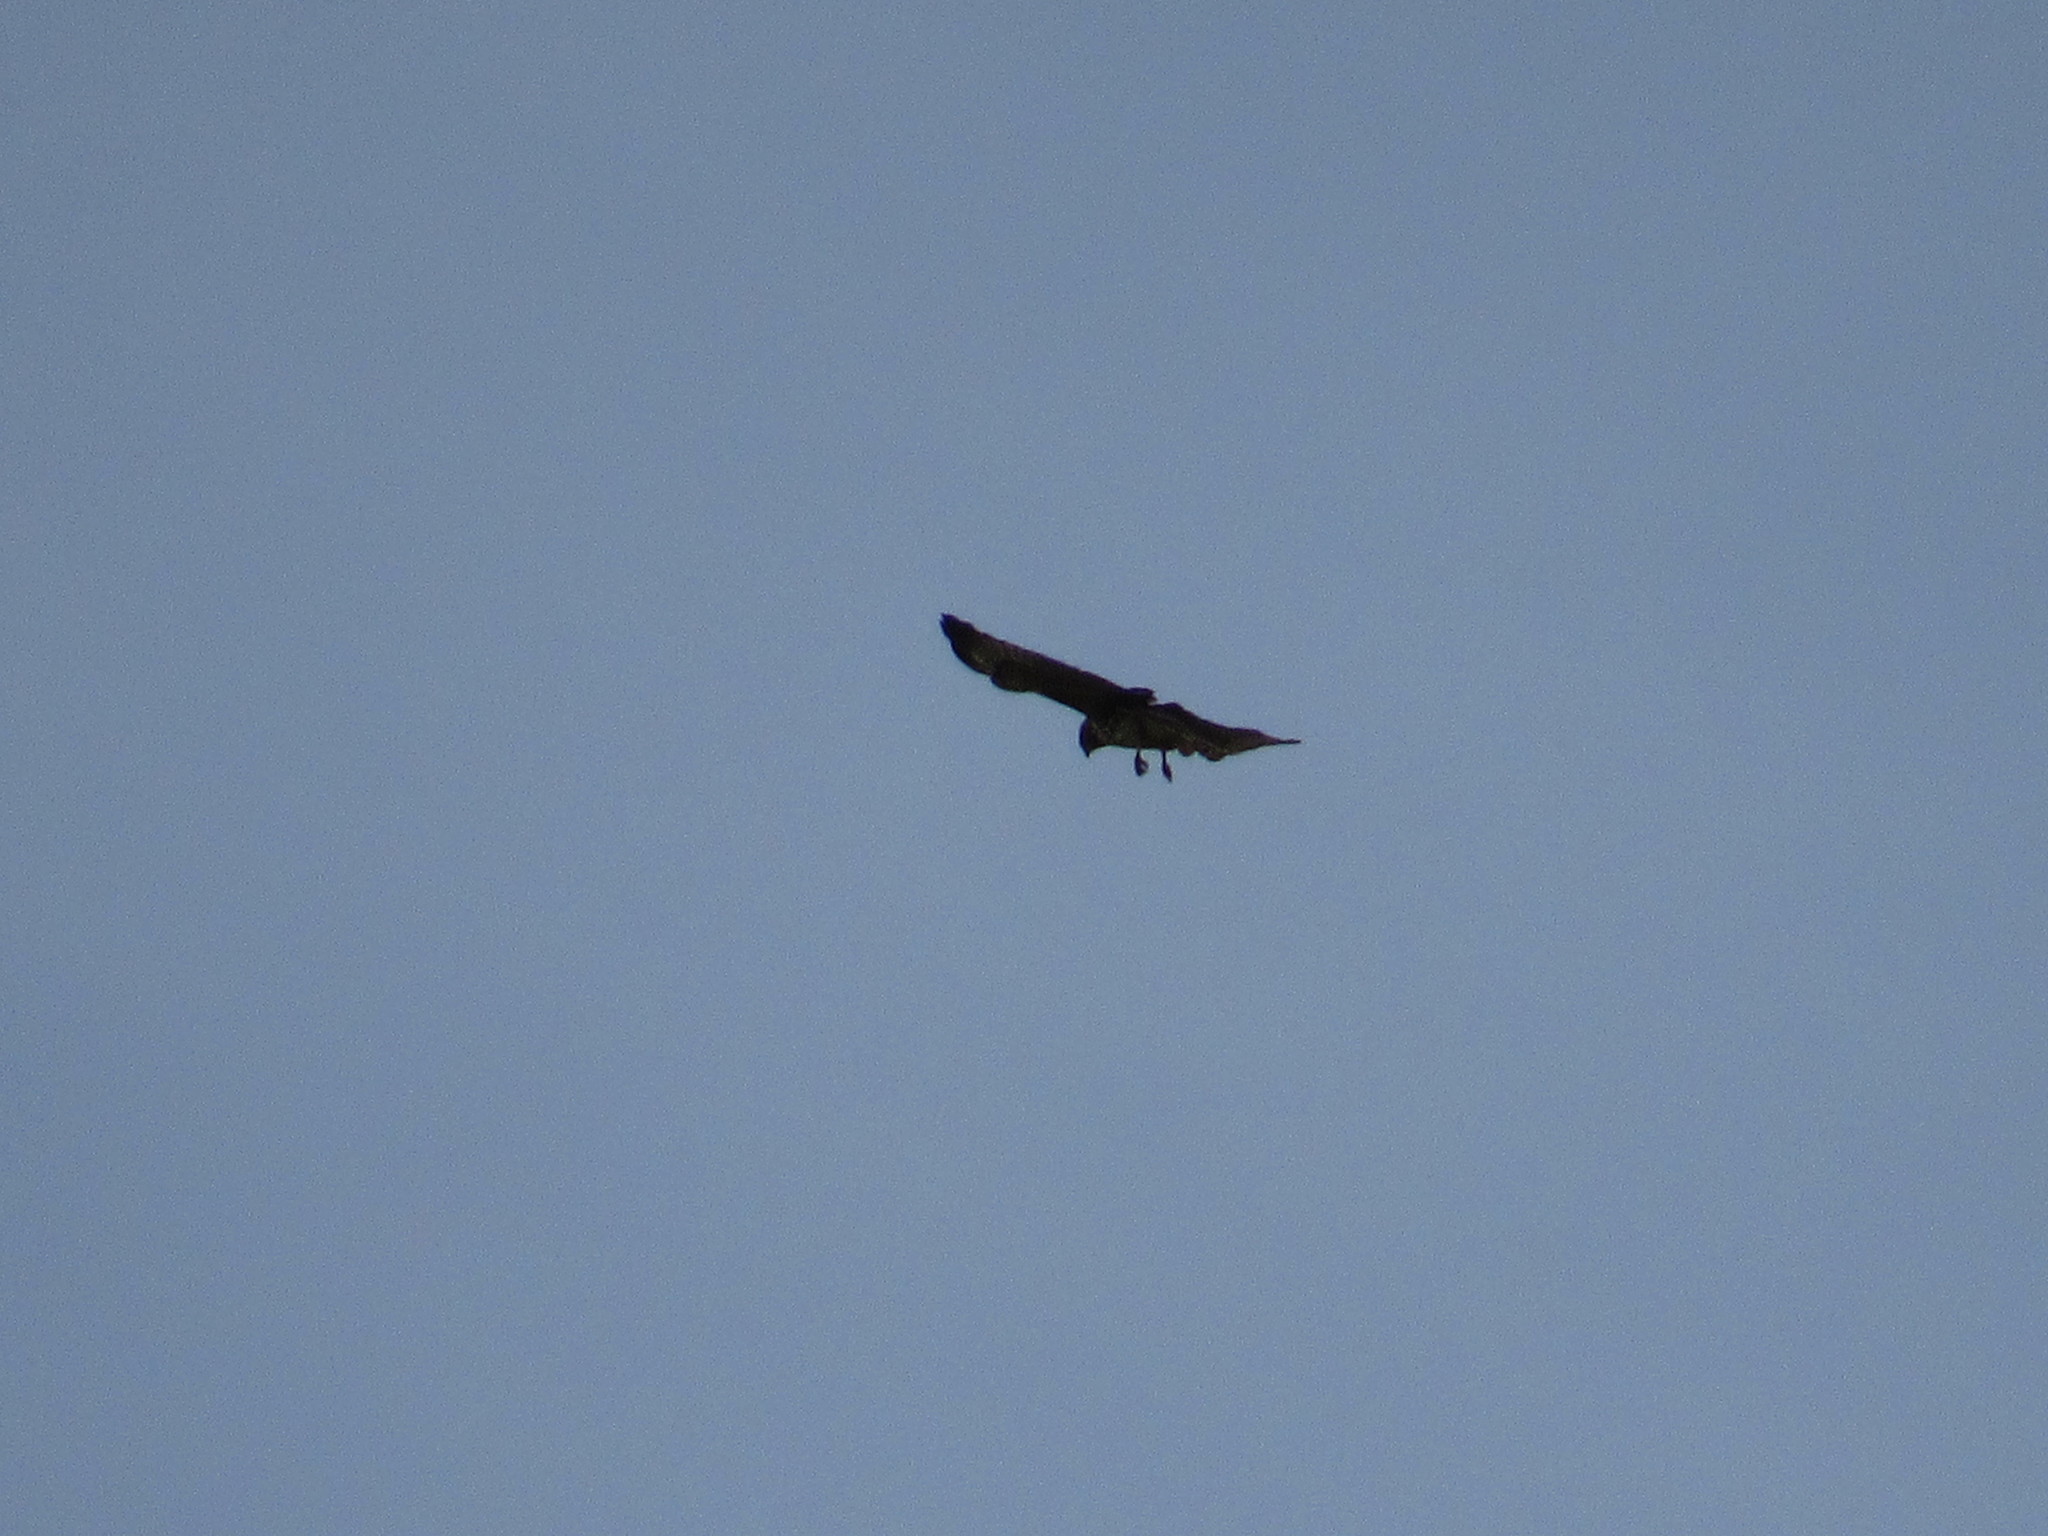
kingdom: Animalia
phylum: Chordata
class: Aves
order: Accipitriformes
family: Accipitridae
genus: Buteo
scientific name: Buteo jamaicensis
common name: Red-tailed hawk
